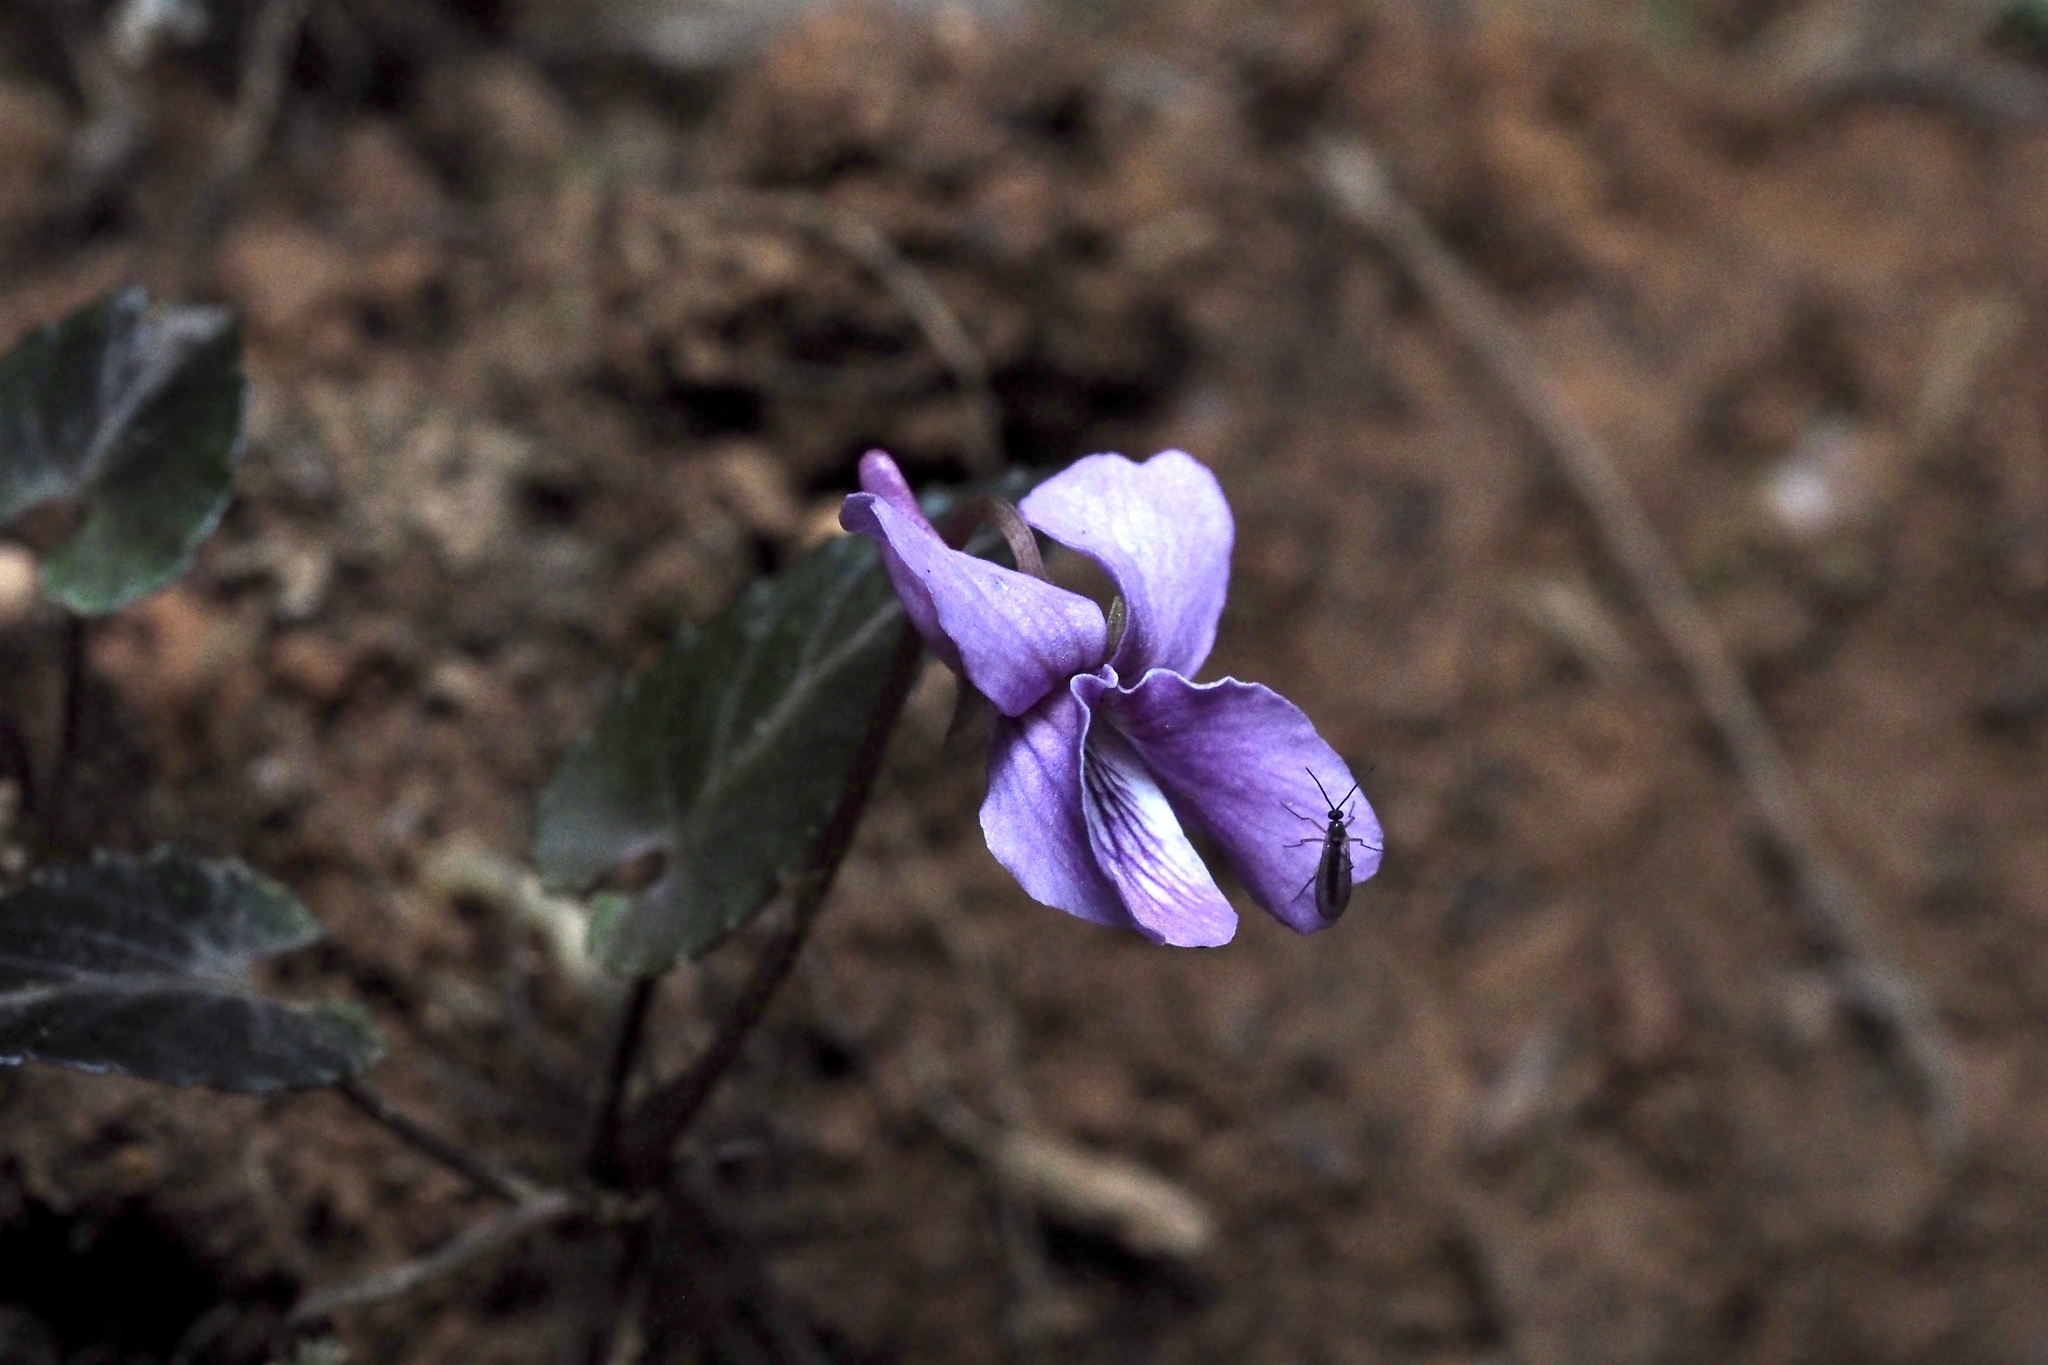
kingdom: Plantae
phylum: Tracheophyta
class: Magnoliopsida
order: Malpighiales
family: Violaceae
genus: Viola
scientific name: Viola violacea
